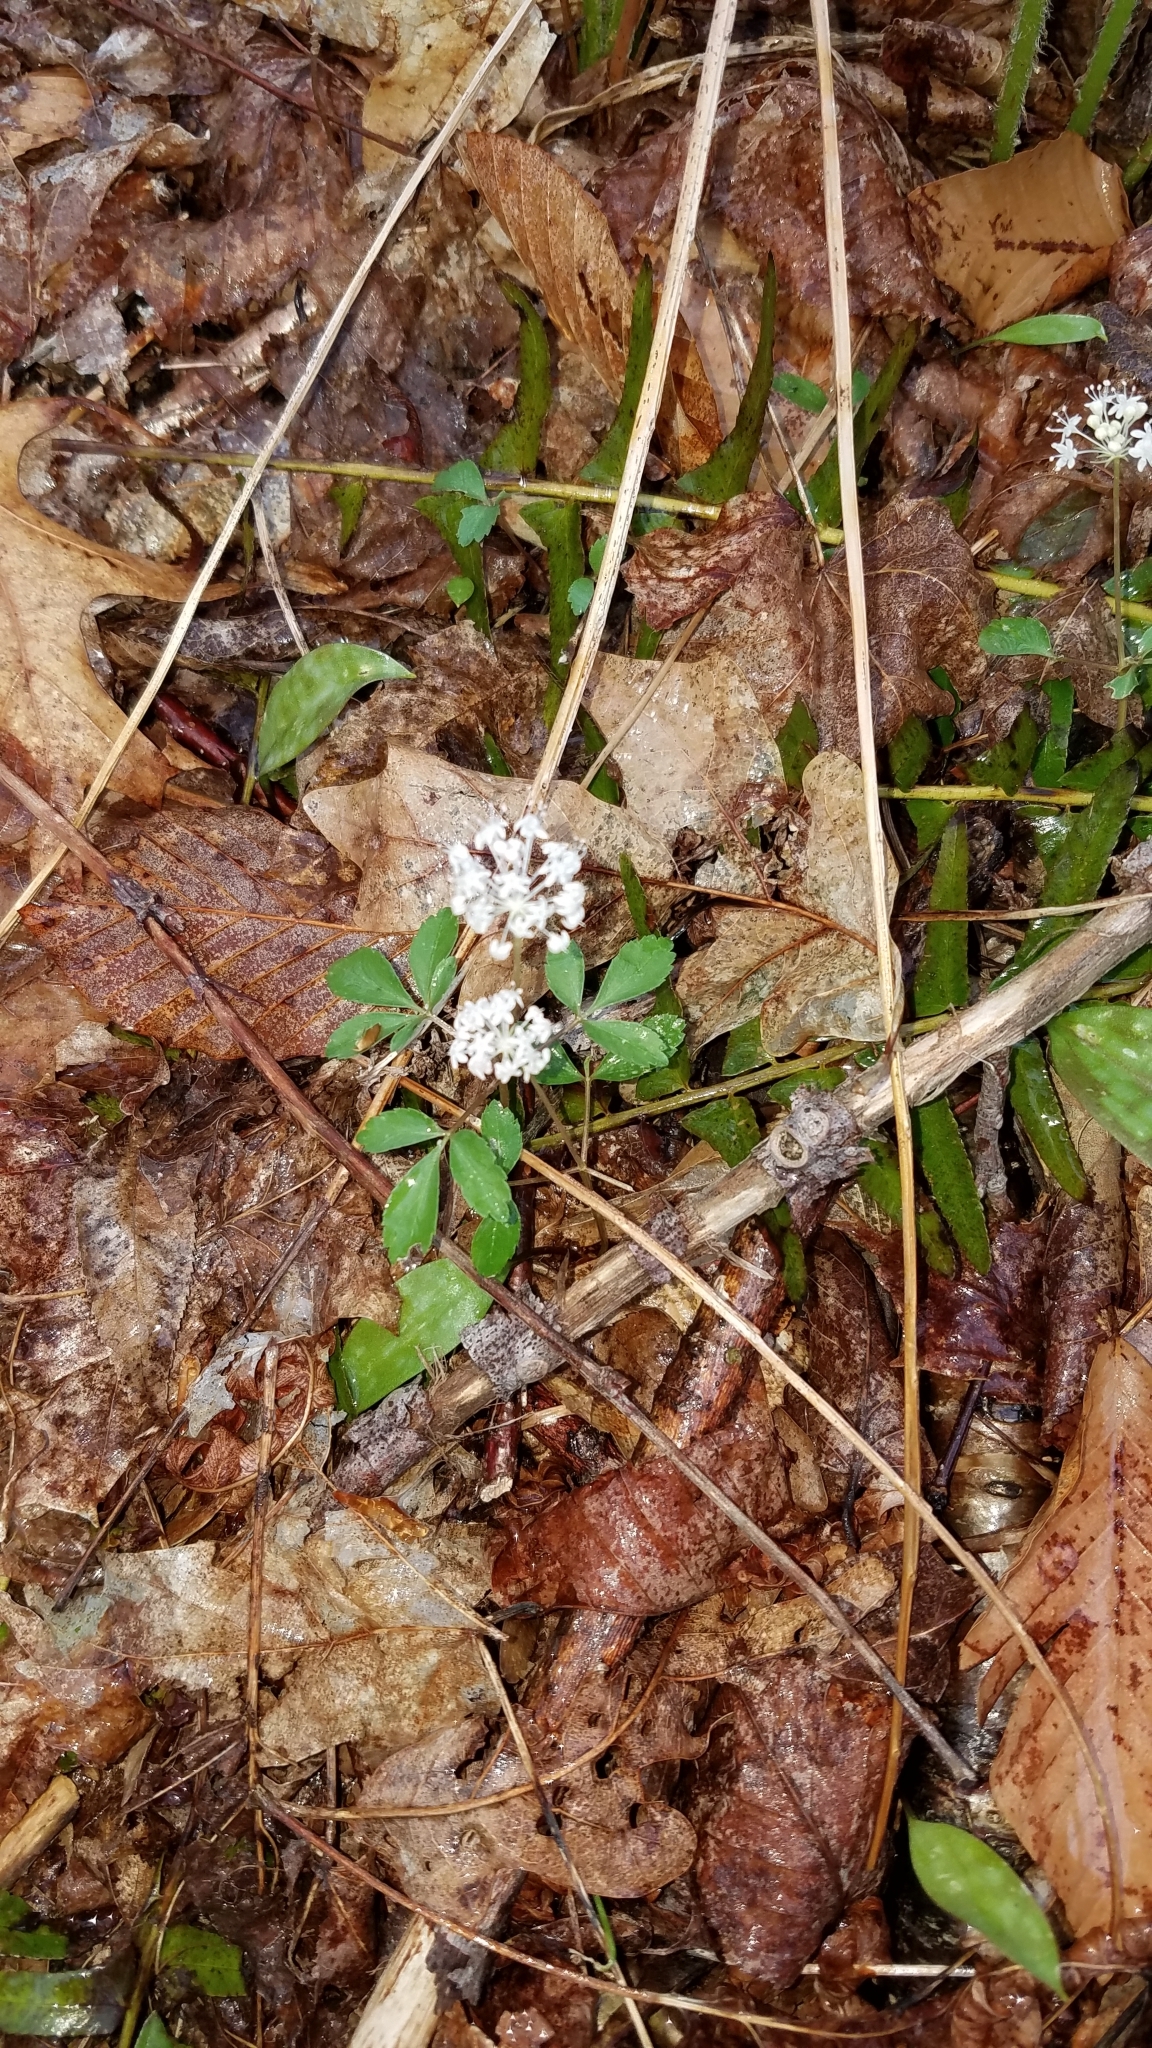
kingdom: Plantae
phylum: Tracheophyta
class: Magnoliopsida
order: Apiales
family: Araliaceae
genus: Panax
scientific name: Panax trifolius
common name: Dwarf ginseng
